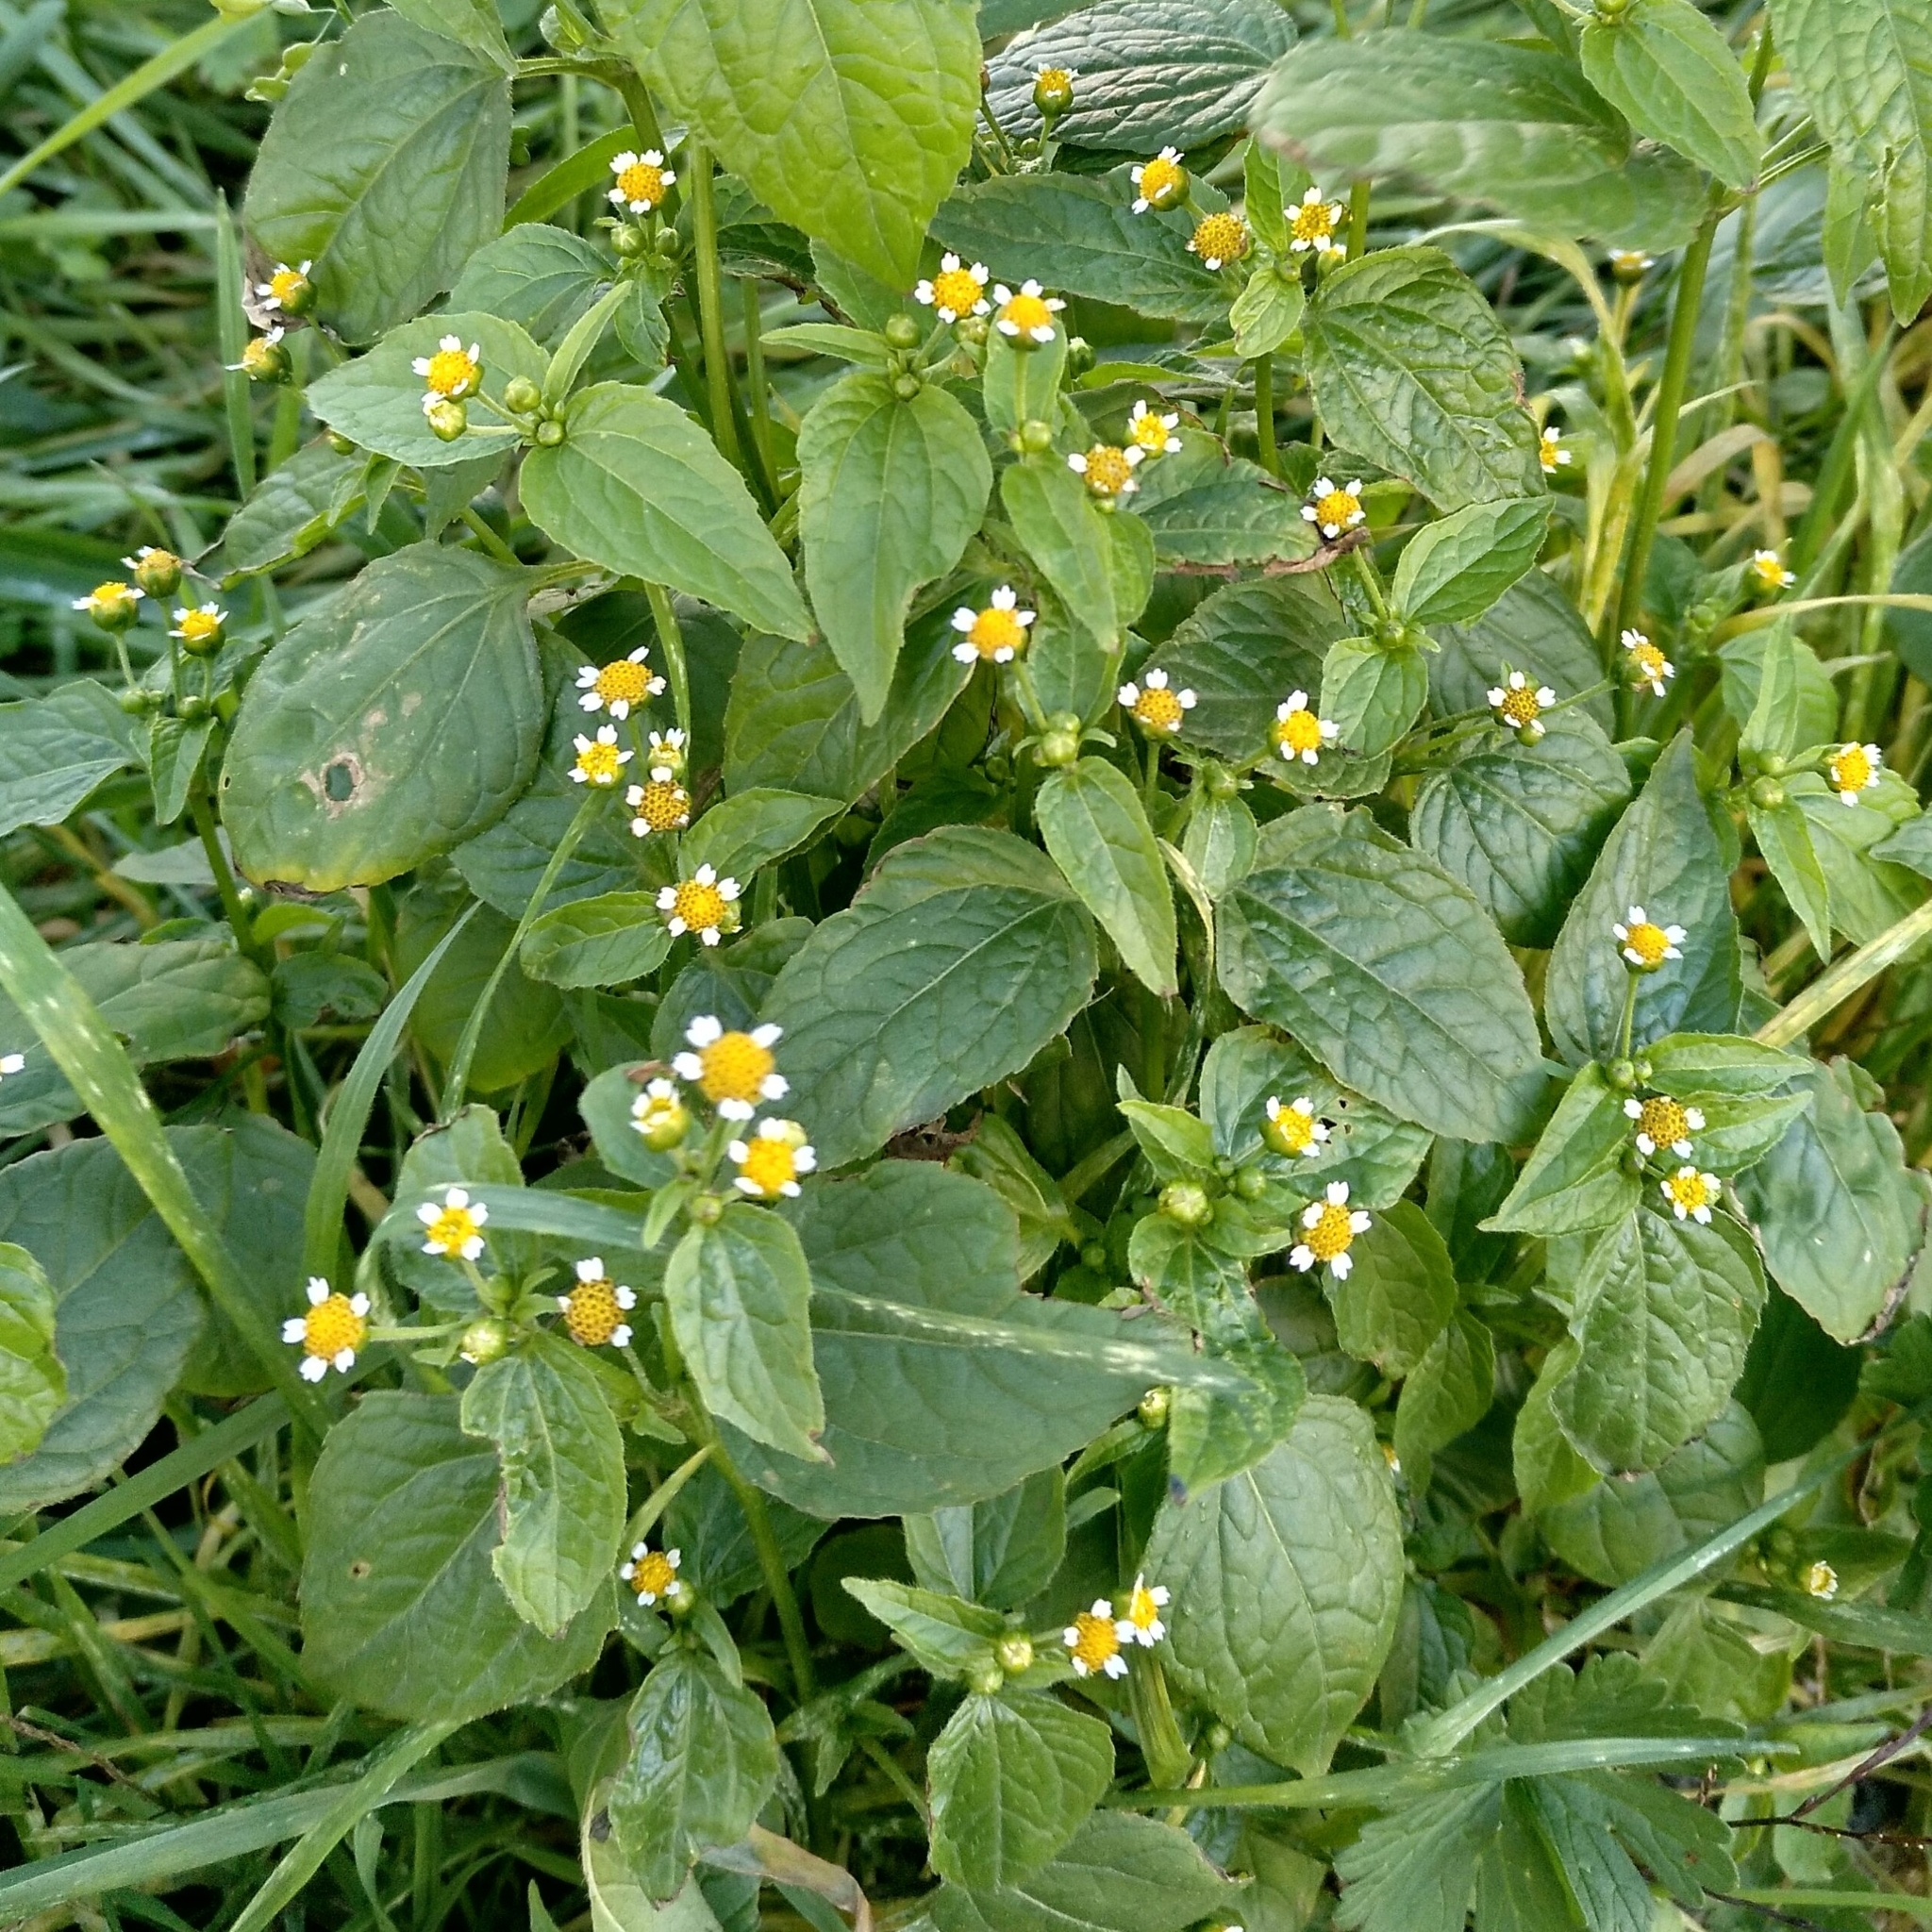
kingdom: Plantae
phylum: Tracheophyta
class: Magnoliopsida
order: Asterales
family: Asteraceae
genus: Galinsoga
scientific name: Galinsoga parviflora
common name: Gallant soldier
